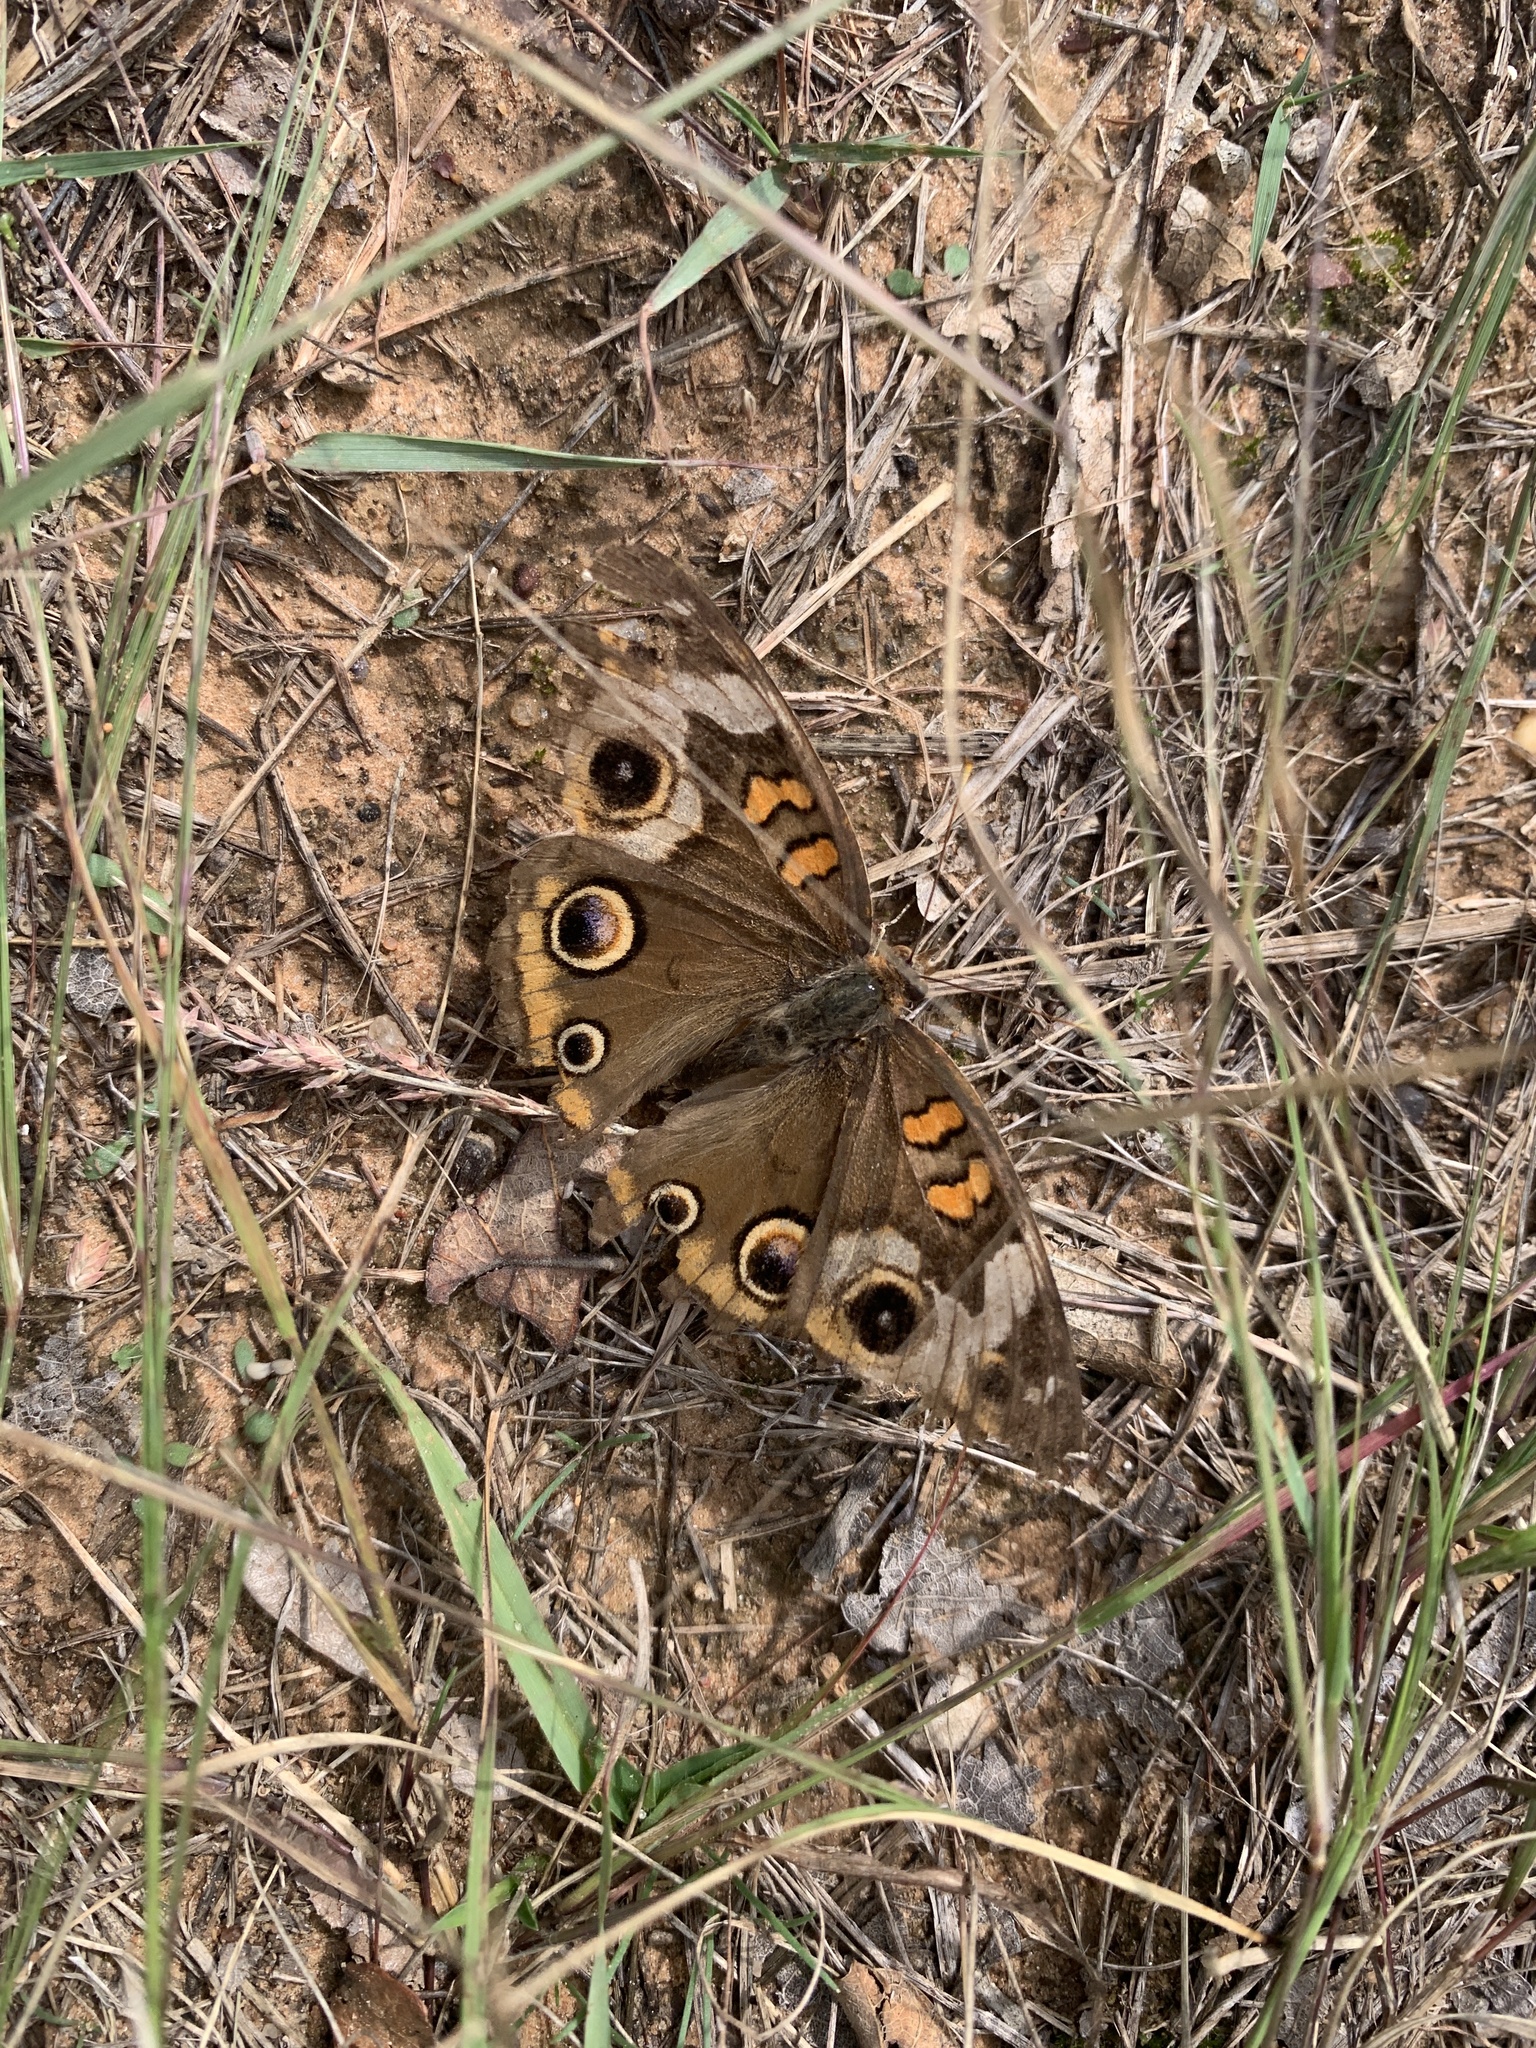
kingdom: Animalia
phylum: Arthropoda
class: Insecta
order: Lepidoptera
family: Nymphalidae
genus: Junonia
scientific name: Junonia coenia
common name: Common buckeye
